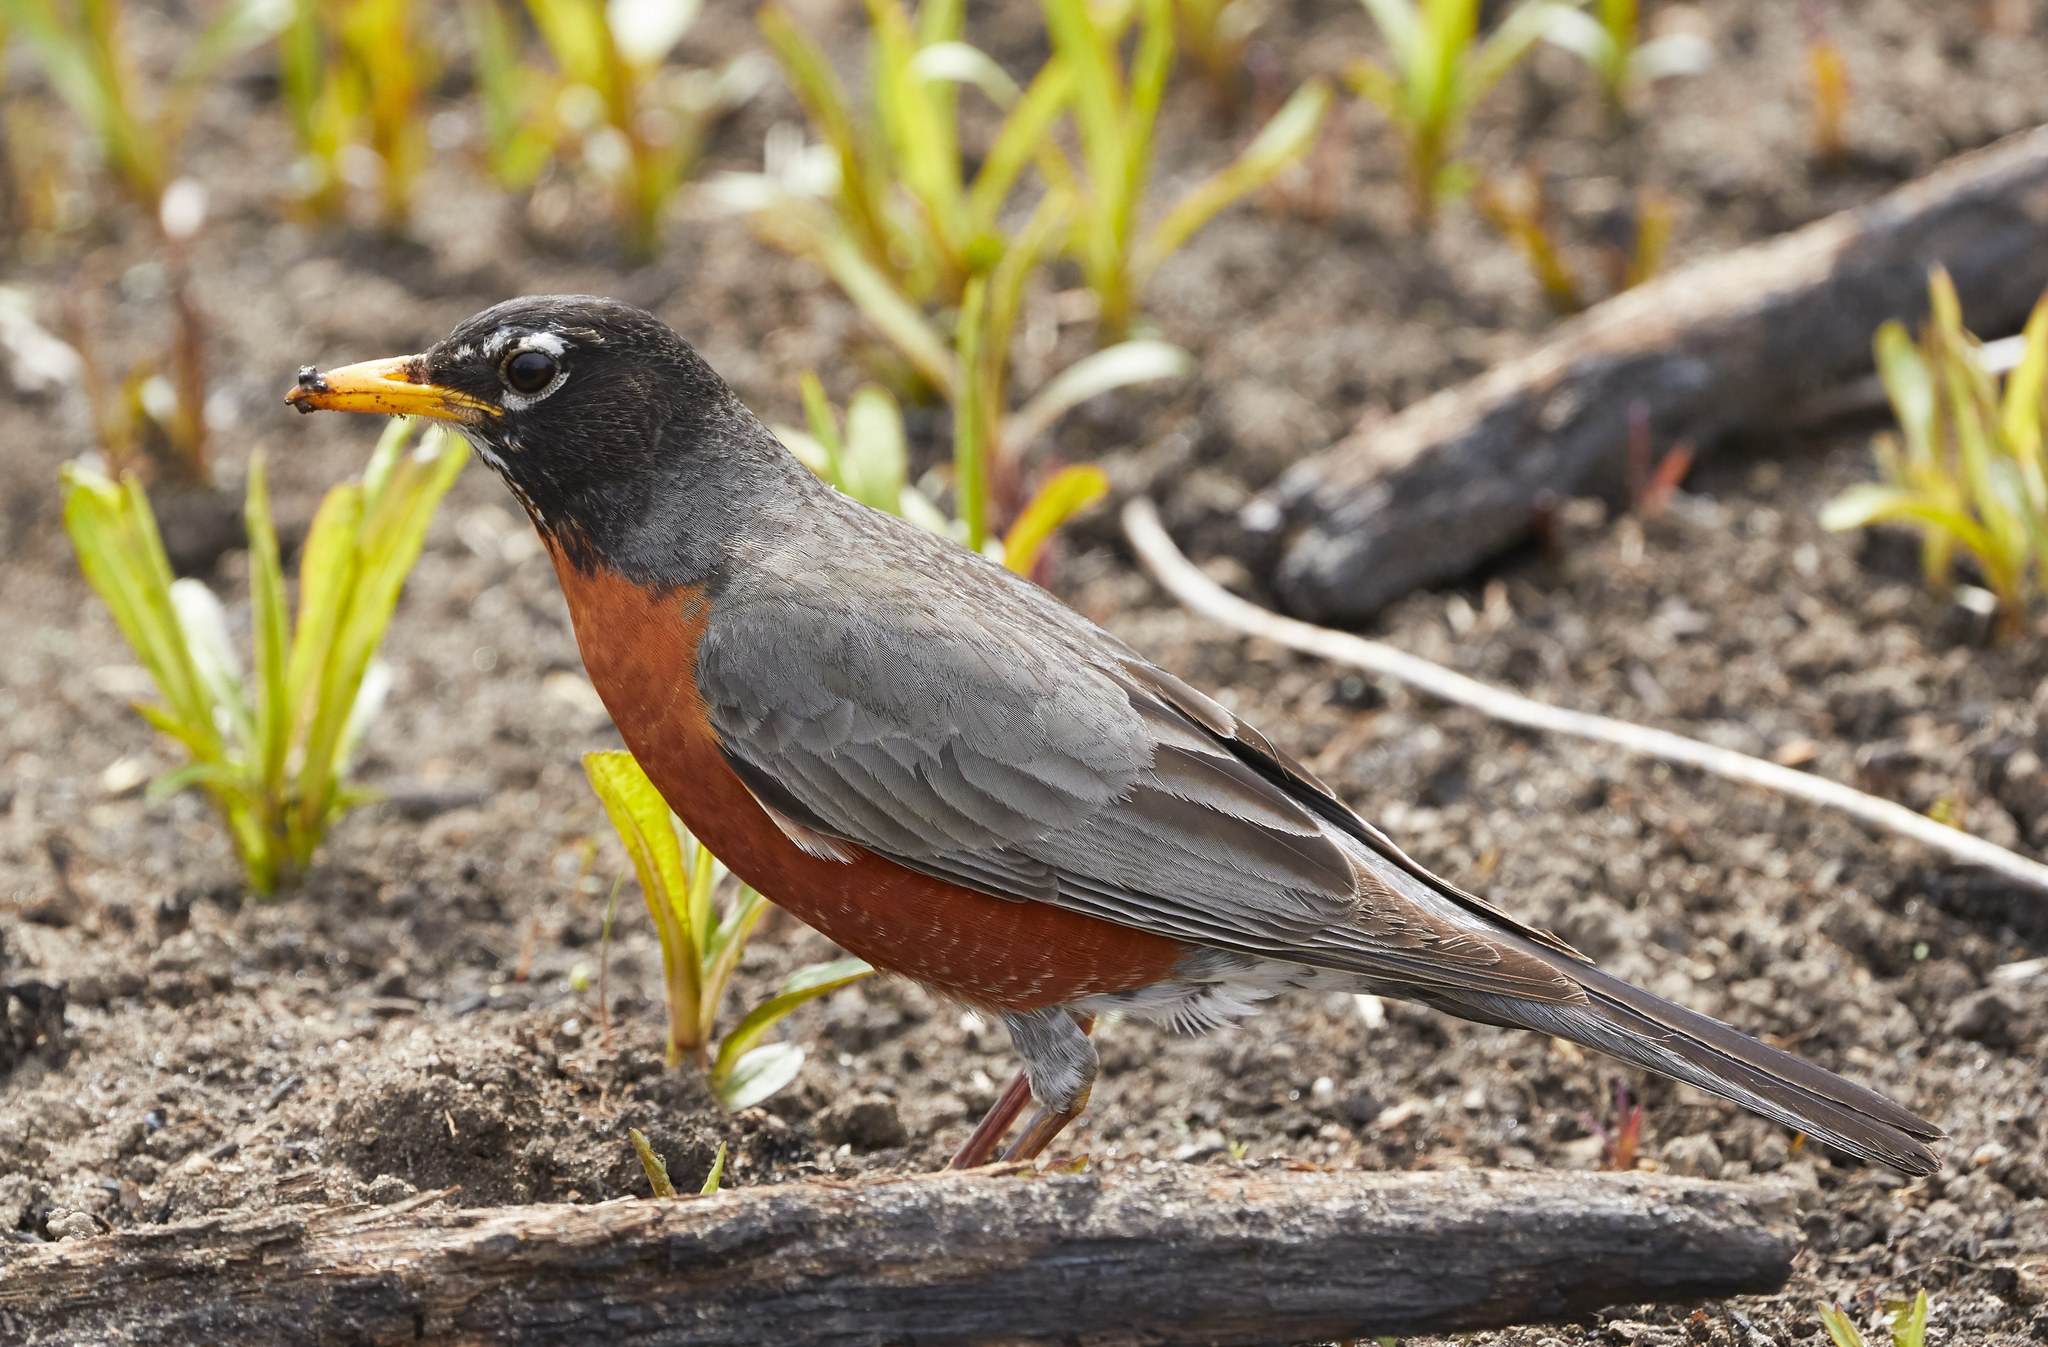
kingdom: Animalia
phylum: Chordata
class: Aves
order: Passeriformes
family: Turdidae
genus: Turdus
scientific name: Turdus migratorius
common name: American robin
